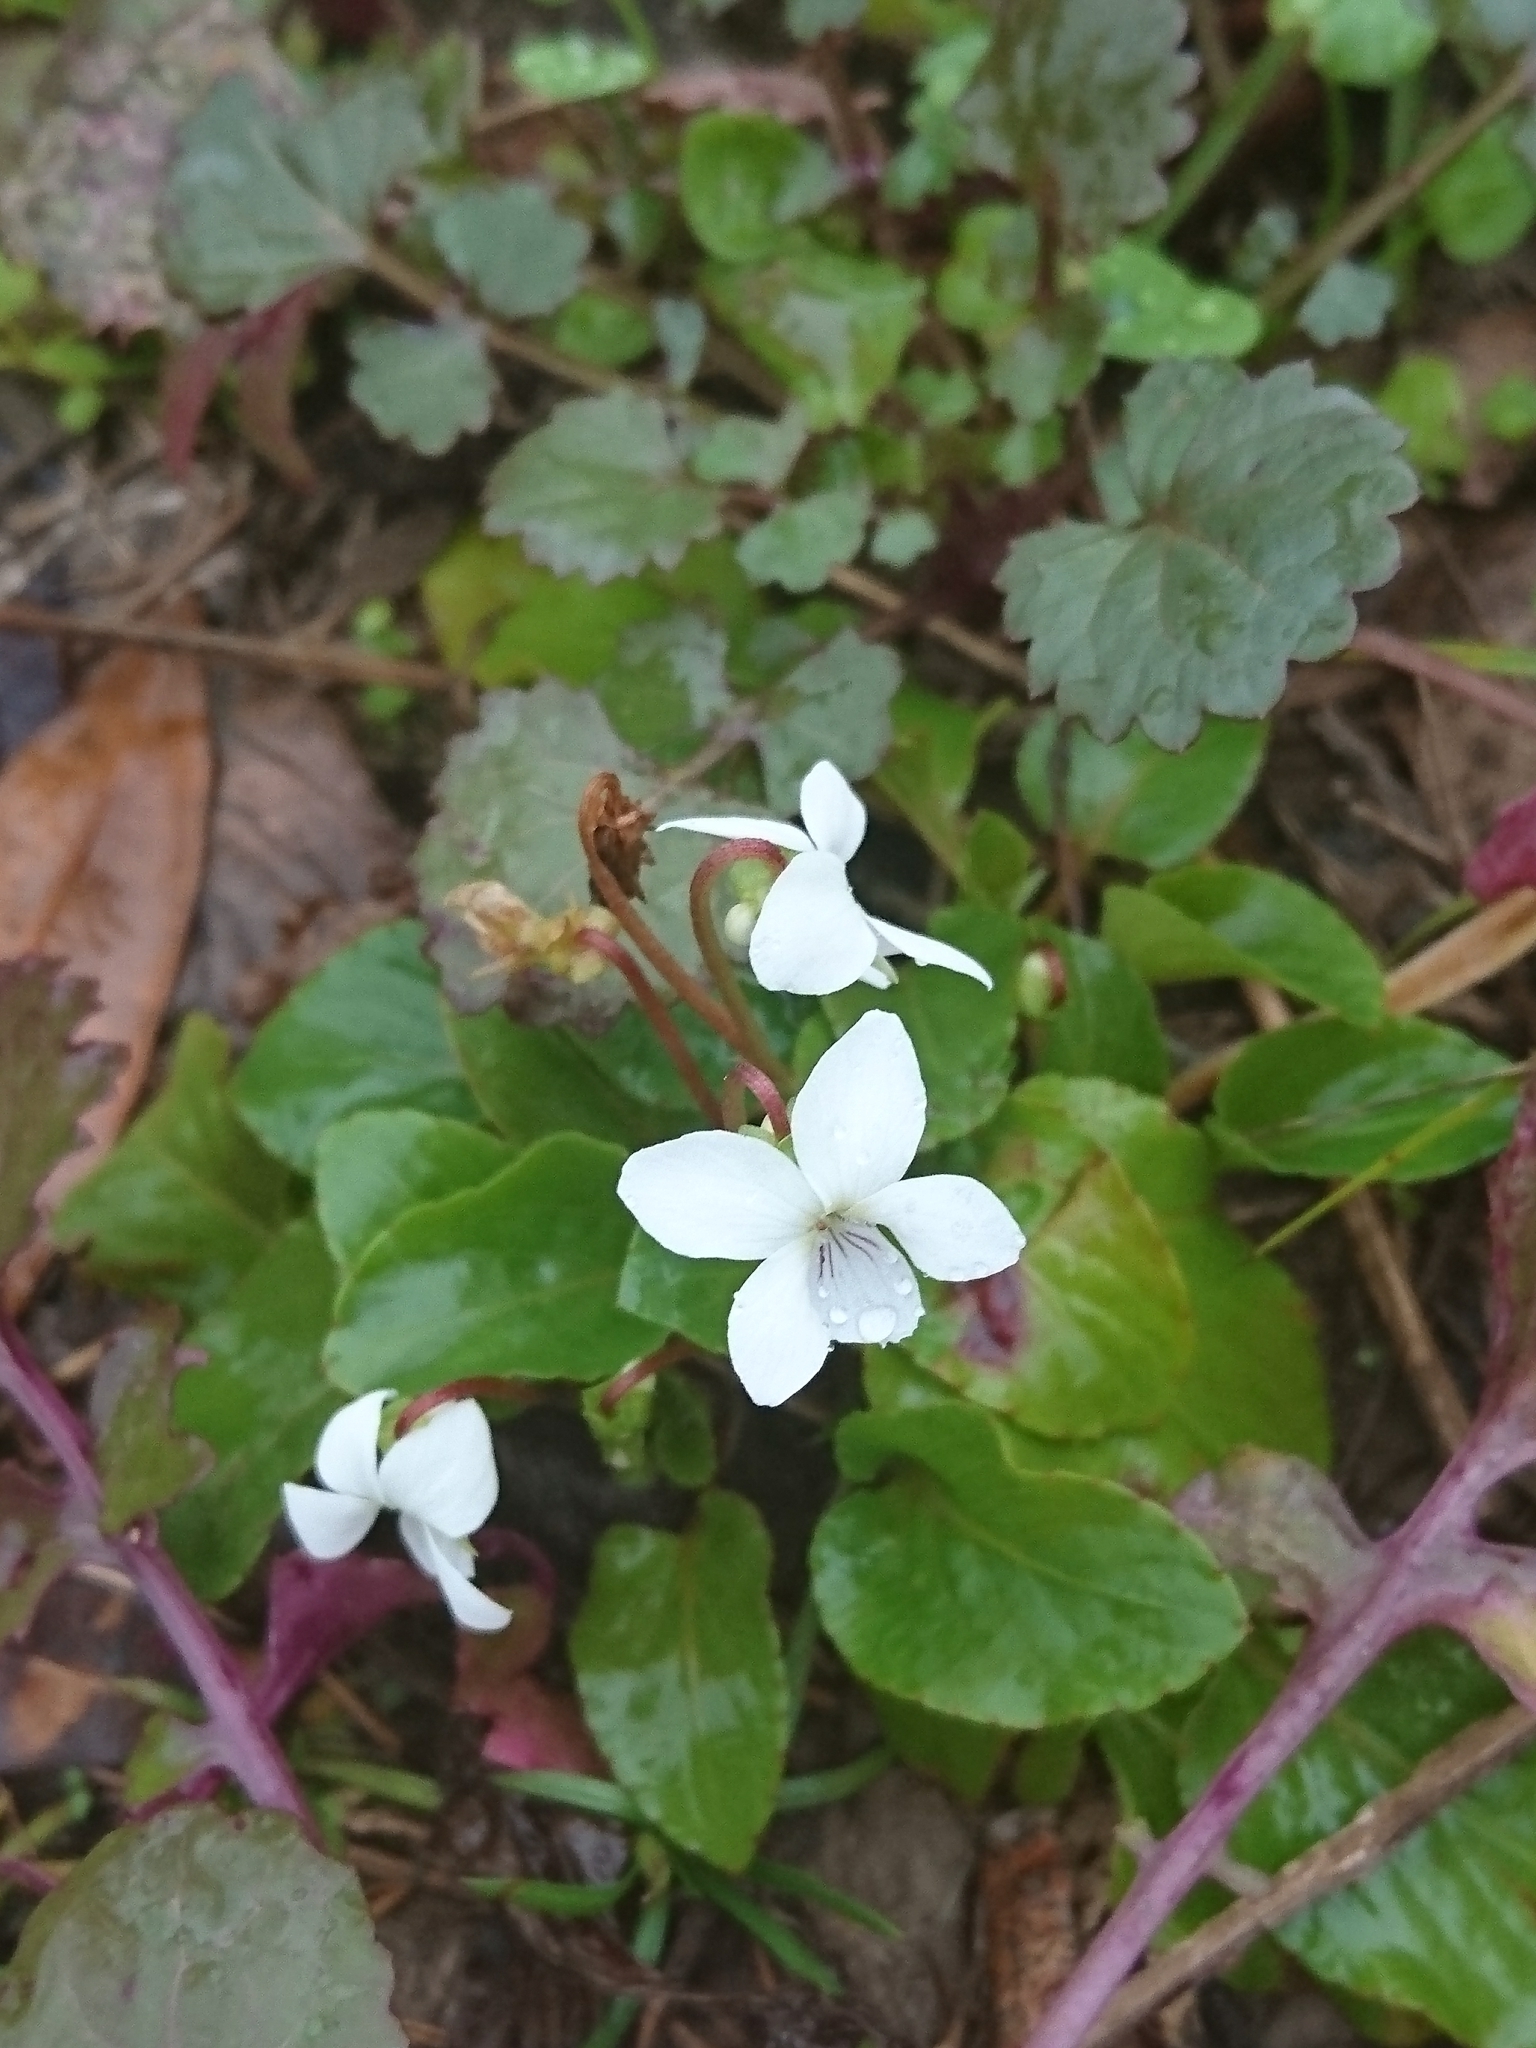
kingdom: Plantae
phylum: Tracheophyta
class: Magnoliopsida
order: Malpighiales
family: Violaceae
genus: Viola
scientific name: Viola primulifolia
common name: Primrose-leaf violet
